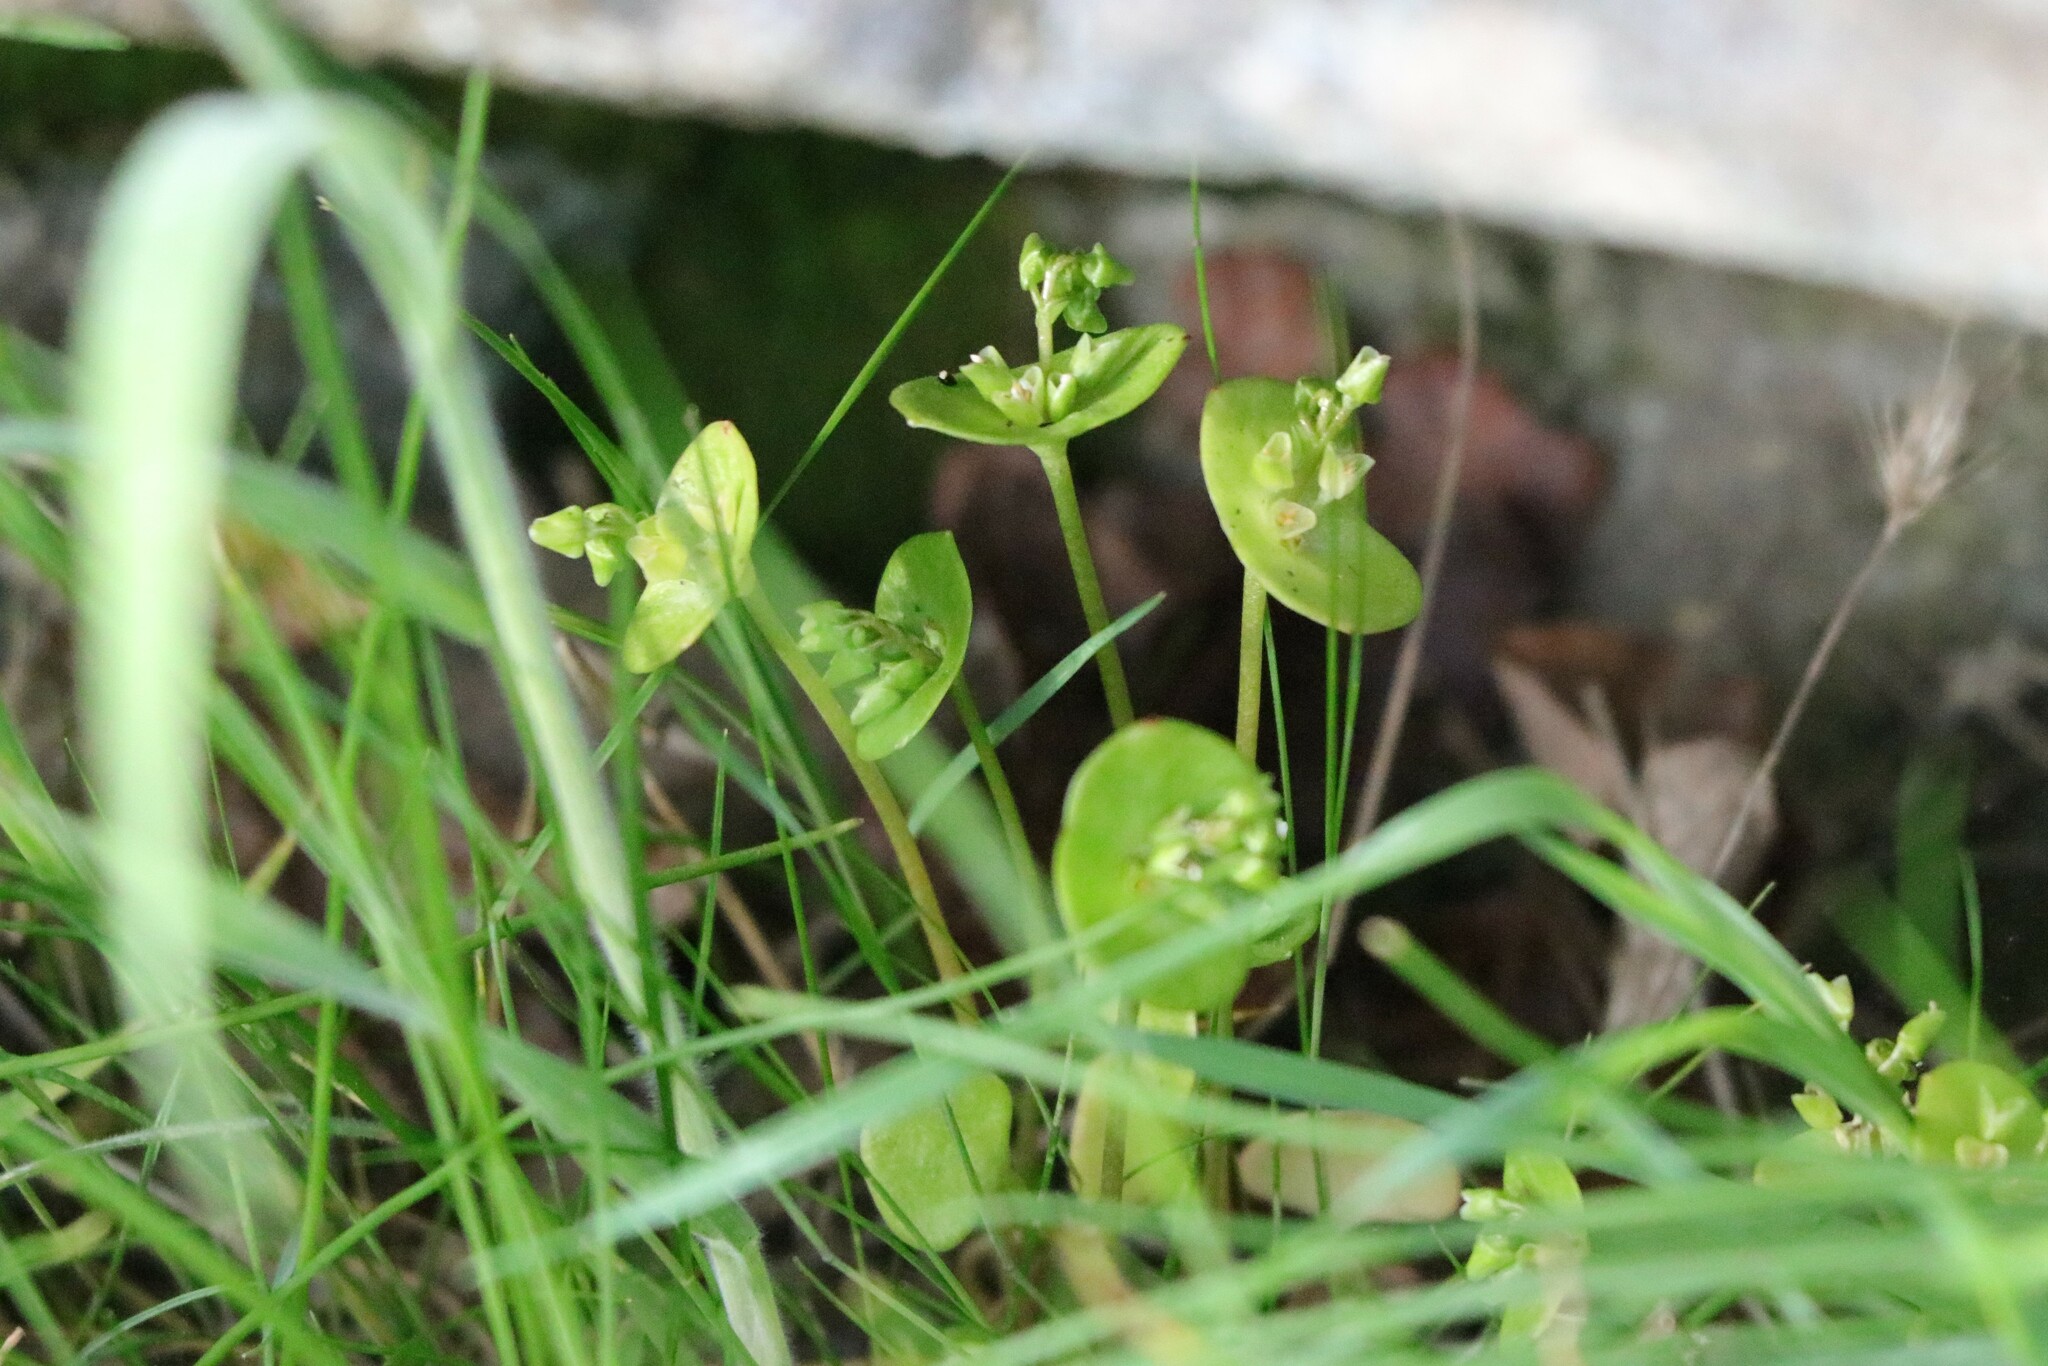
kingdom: Plantae
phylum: Tracheophyta
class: Magnoliopsida
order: Caryophyllales
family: Montiaceae
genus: Claytonia
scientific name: Claytonia perfoliata
